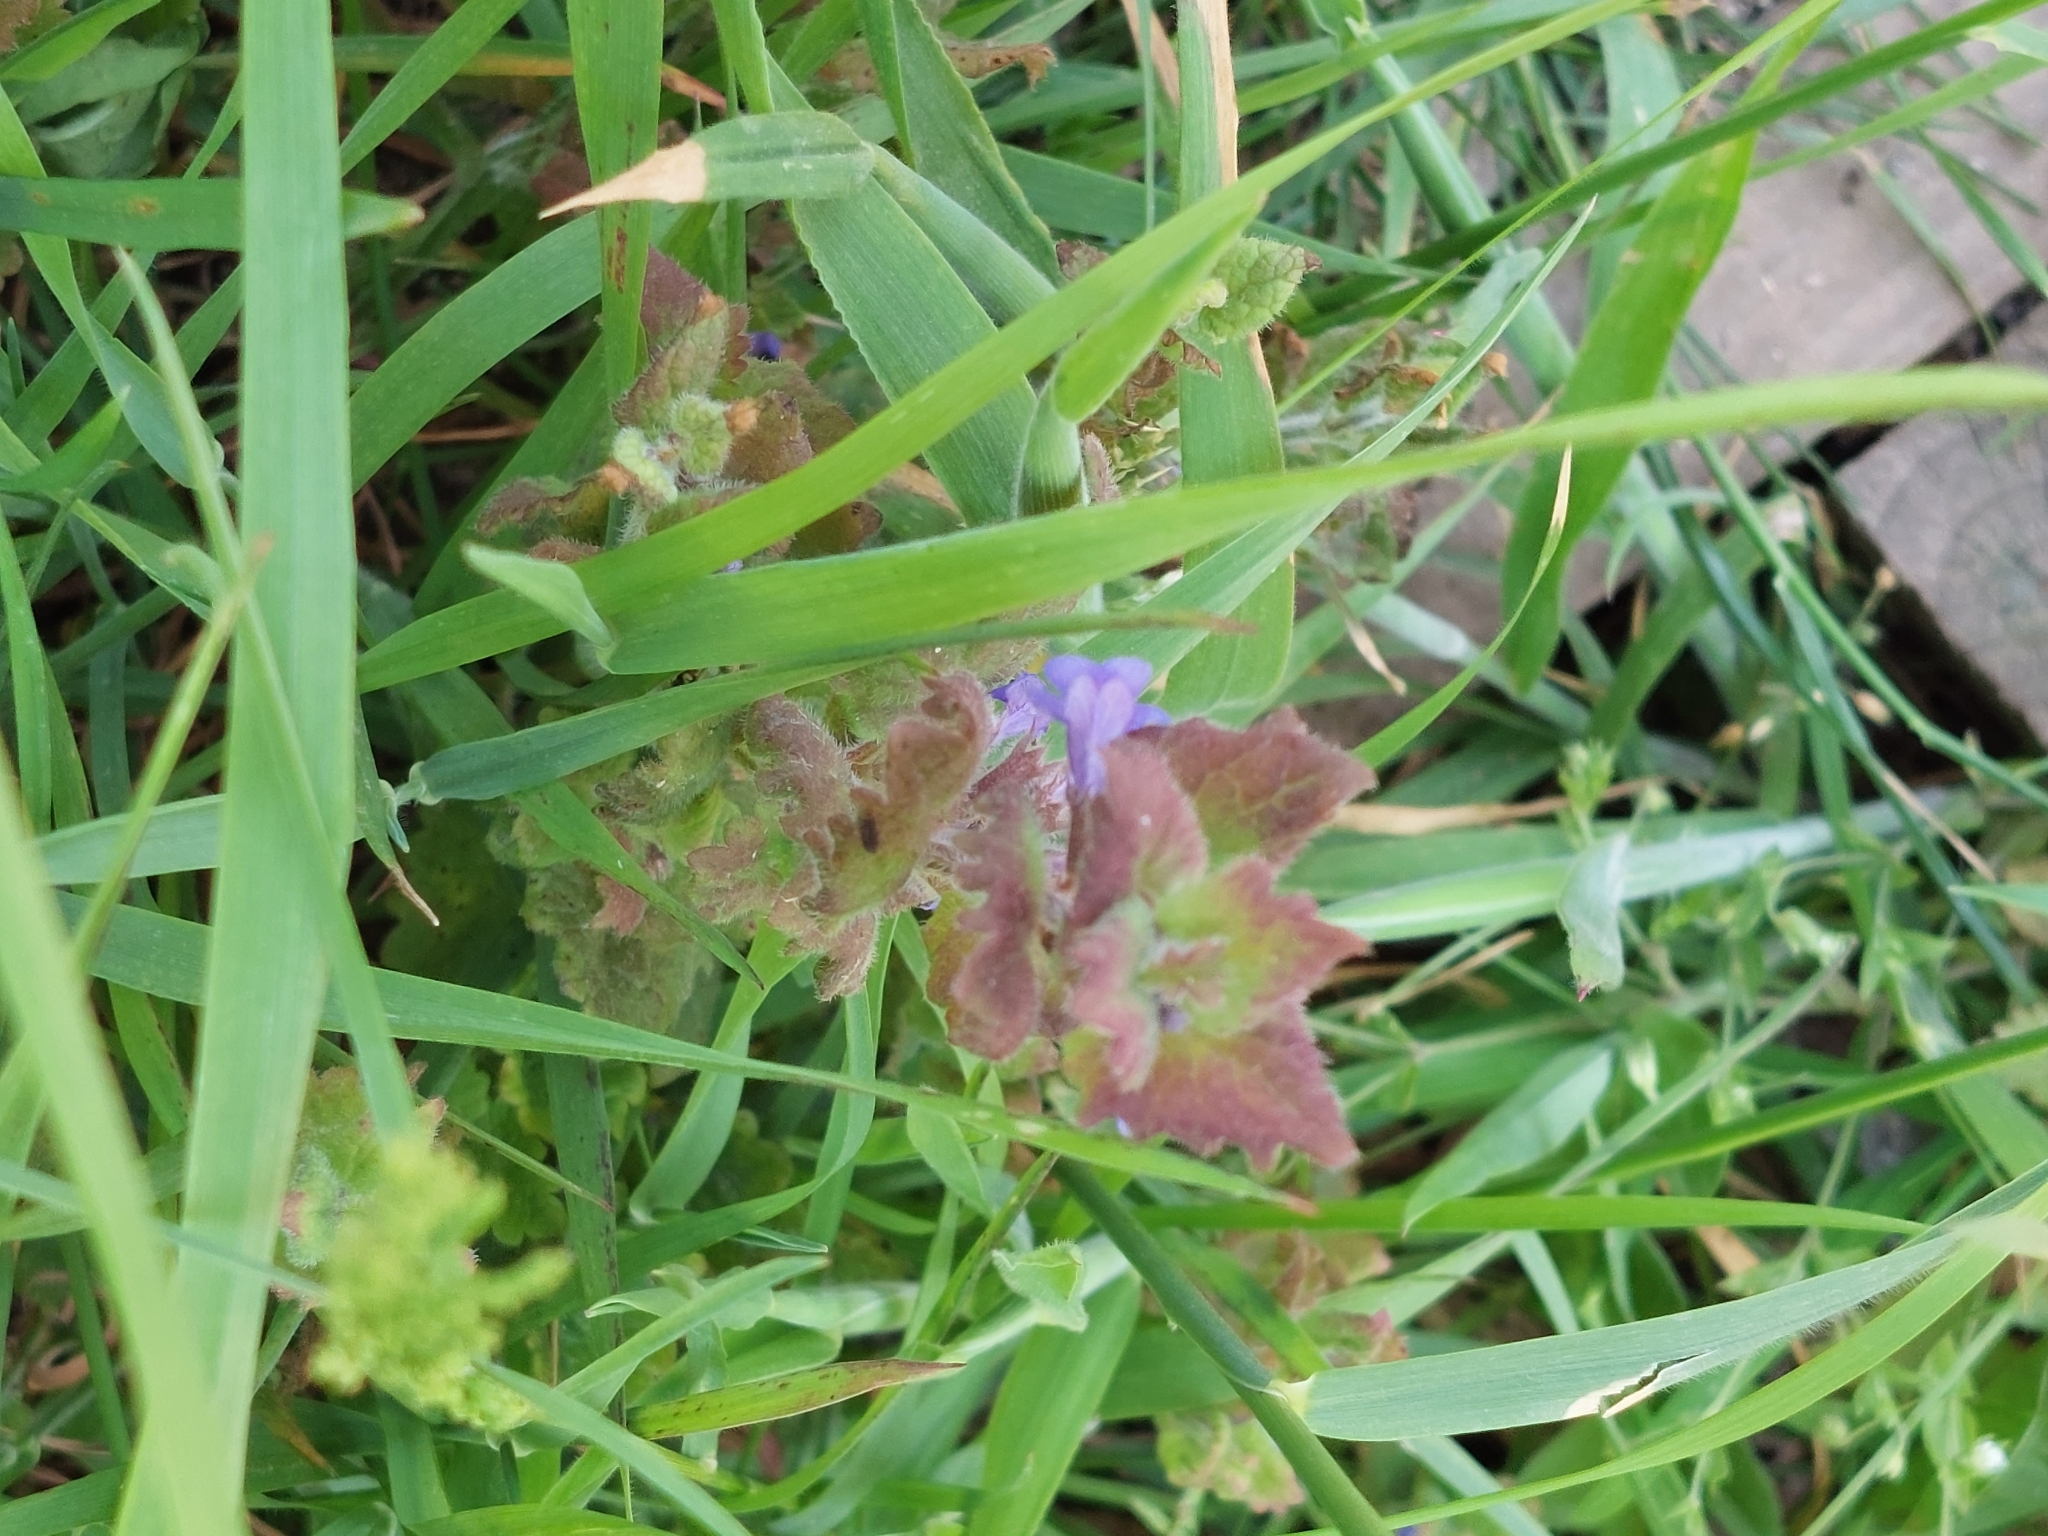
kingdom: Plantae
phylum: Tracheophyta
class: Magnoliopsida
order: Lamiales
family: Lamiaceae
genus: Glechoma
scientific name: Glechoma hederacea
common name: Ground ivy
